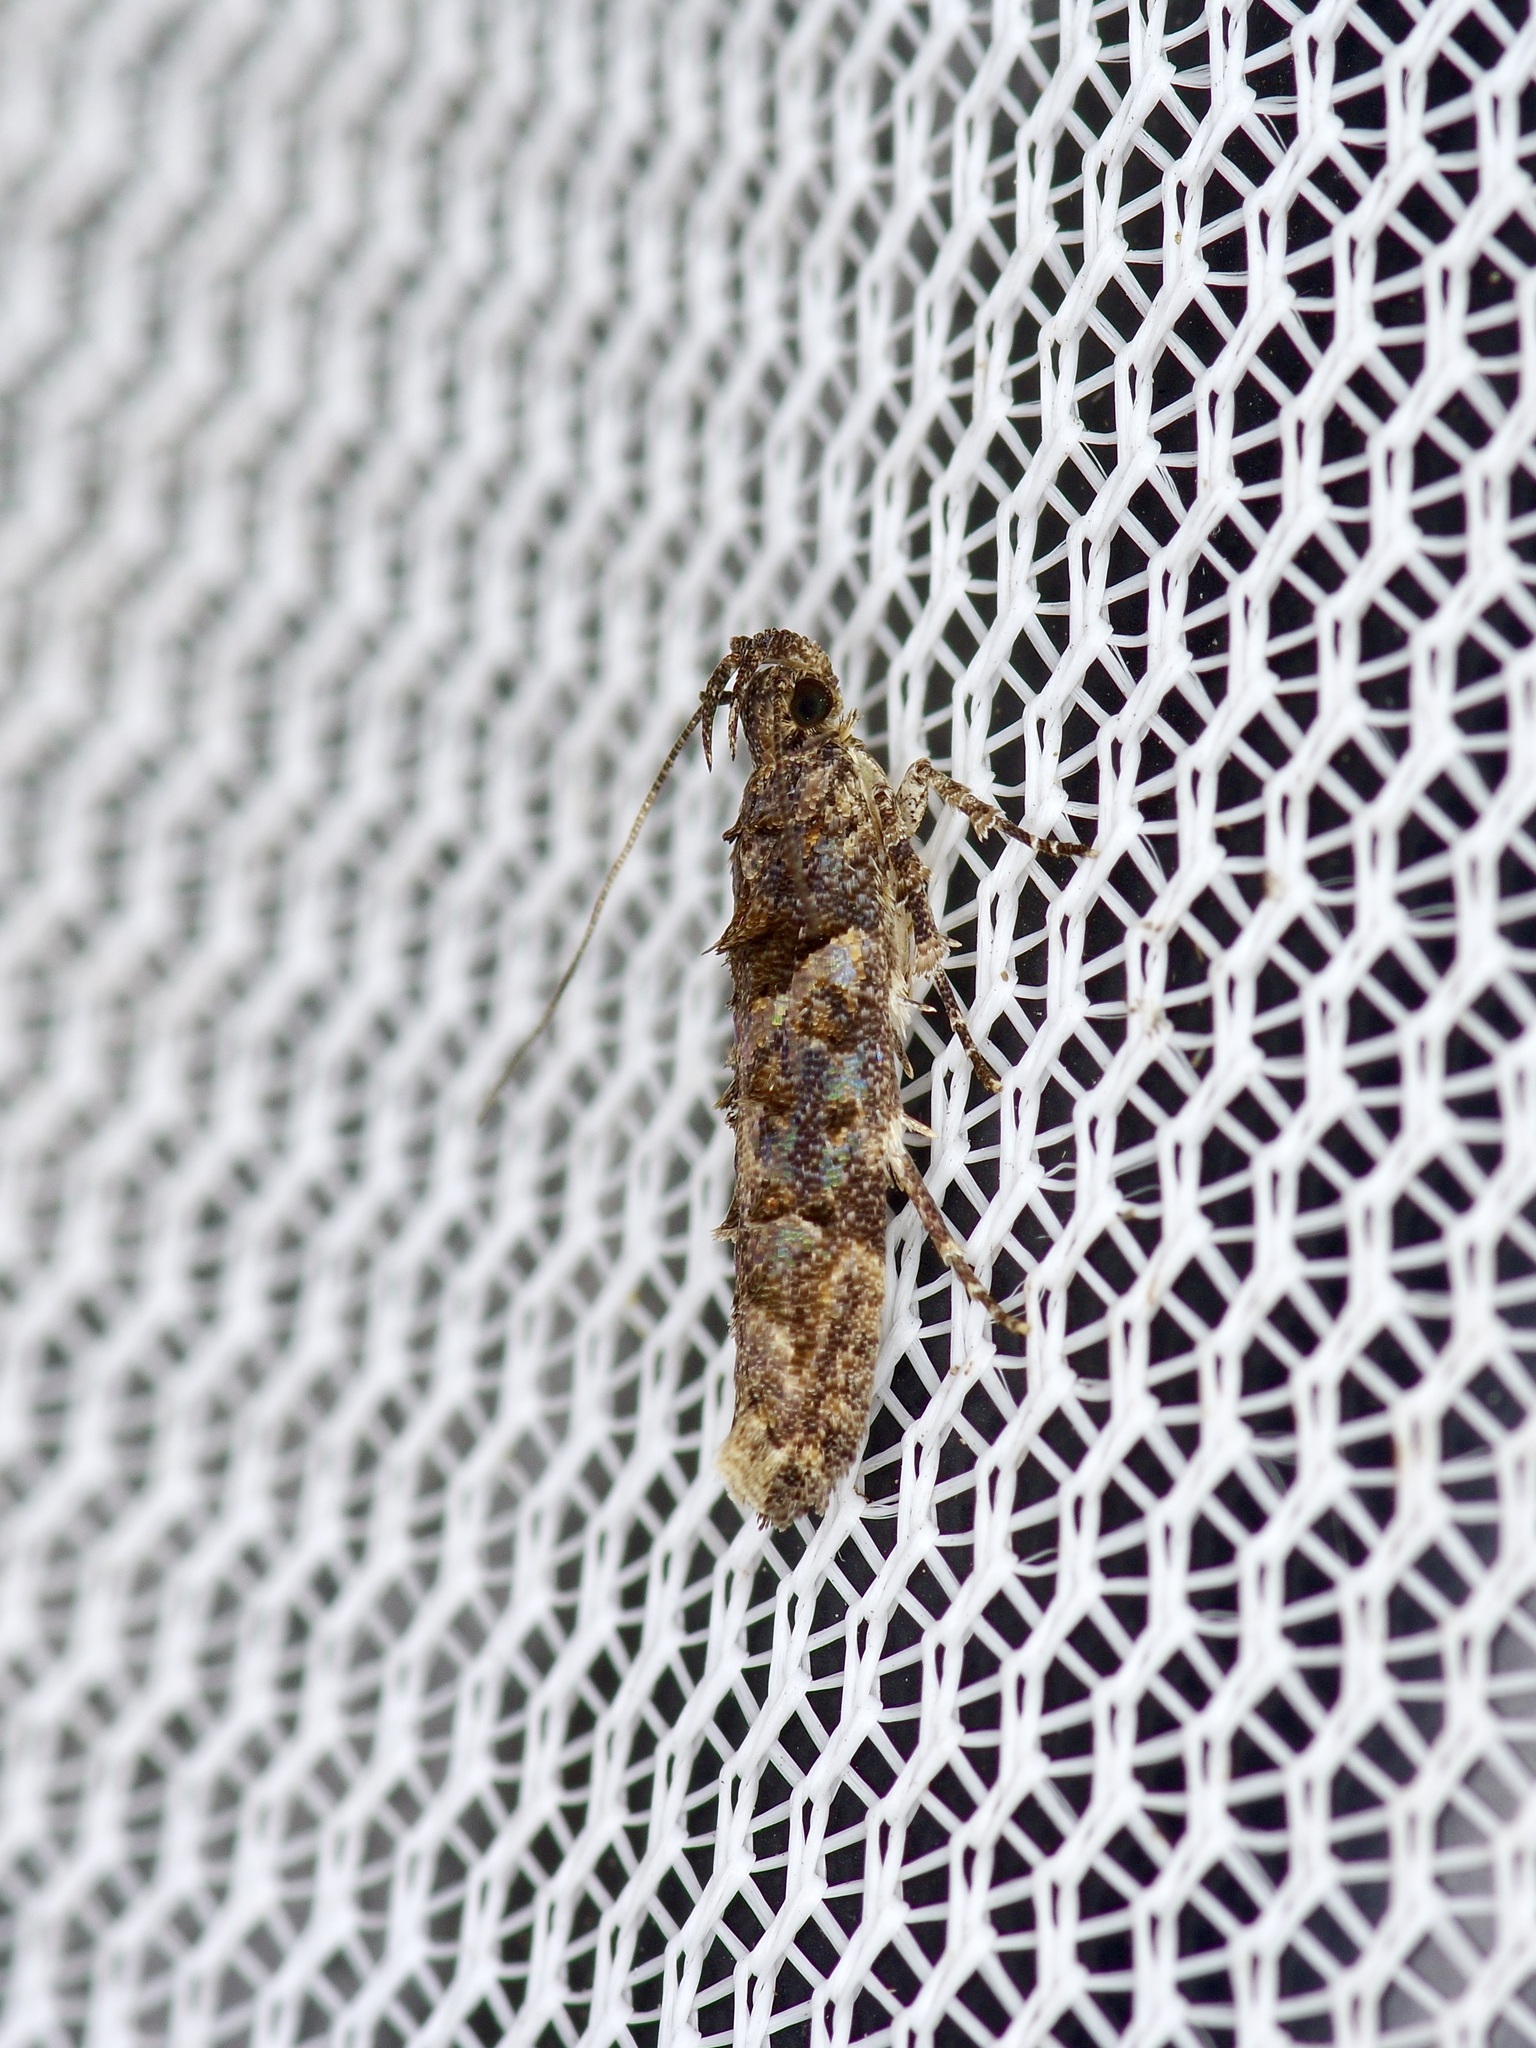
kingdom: Animalia
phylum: Arthropoda
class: Insecta
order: Lepidoptera
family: Gelechiidae
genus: Telphusa
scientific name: Telphusa perspicua
